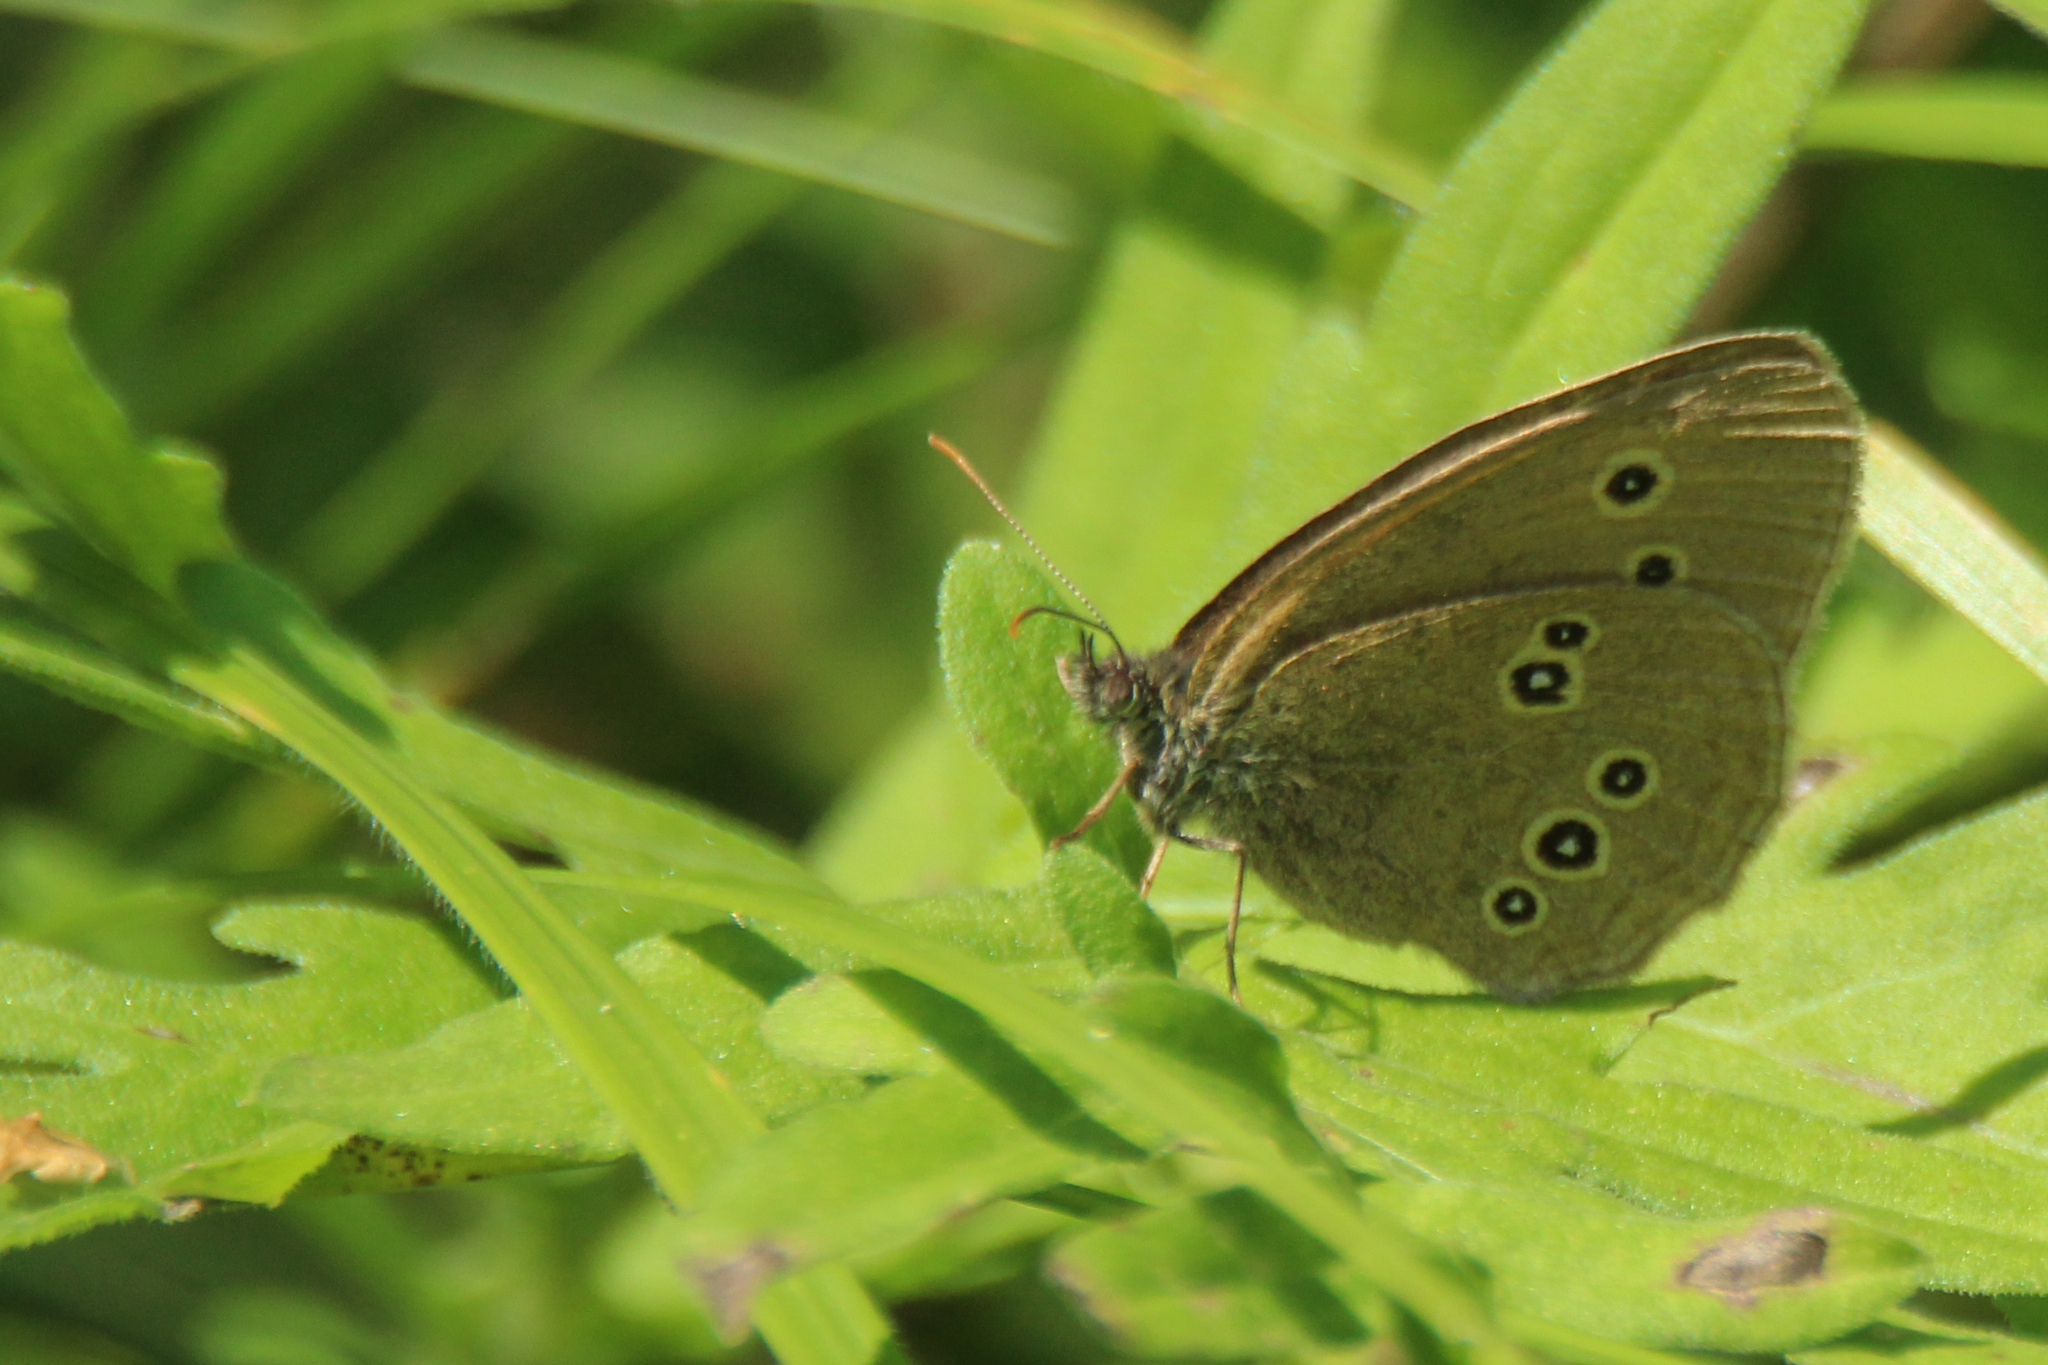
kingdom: Animalia
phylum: Arthropoda
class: Insecta
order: Lepidoptera
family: Nymphalidae
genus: Aphantopus
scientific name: Aphantopus hyperantus
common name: Ringlet
